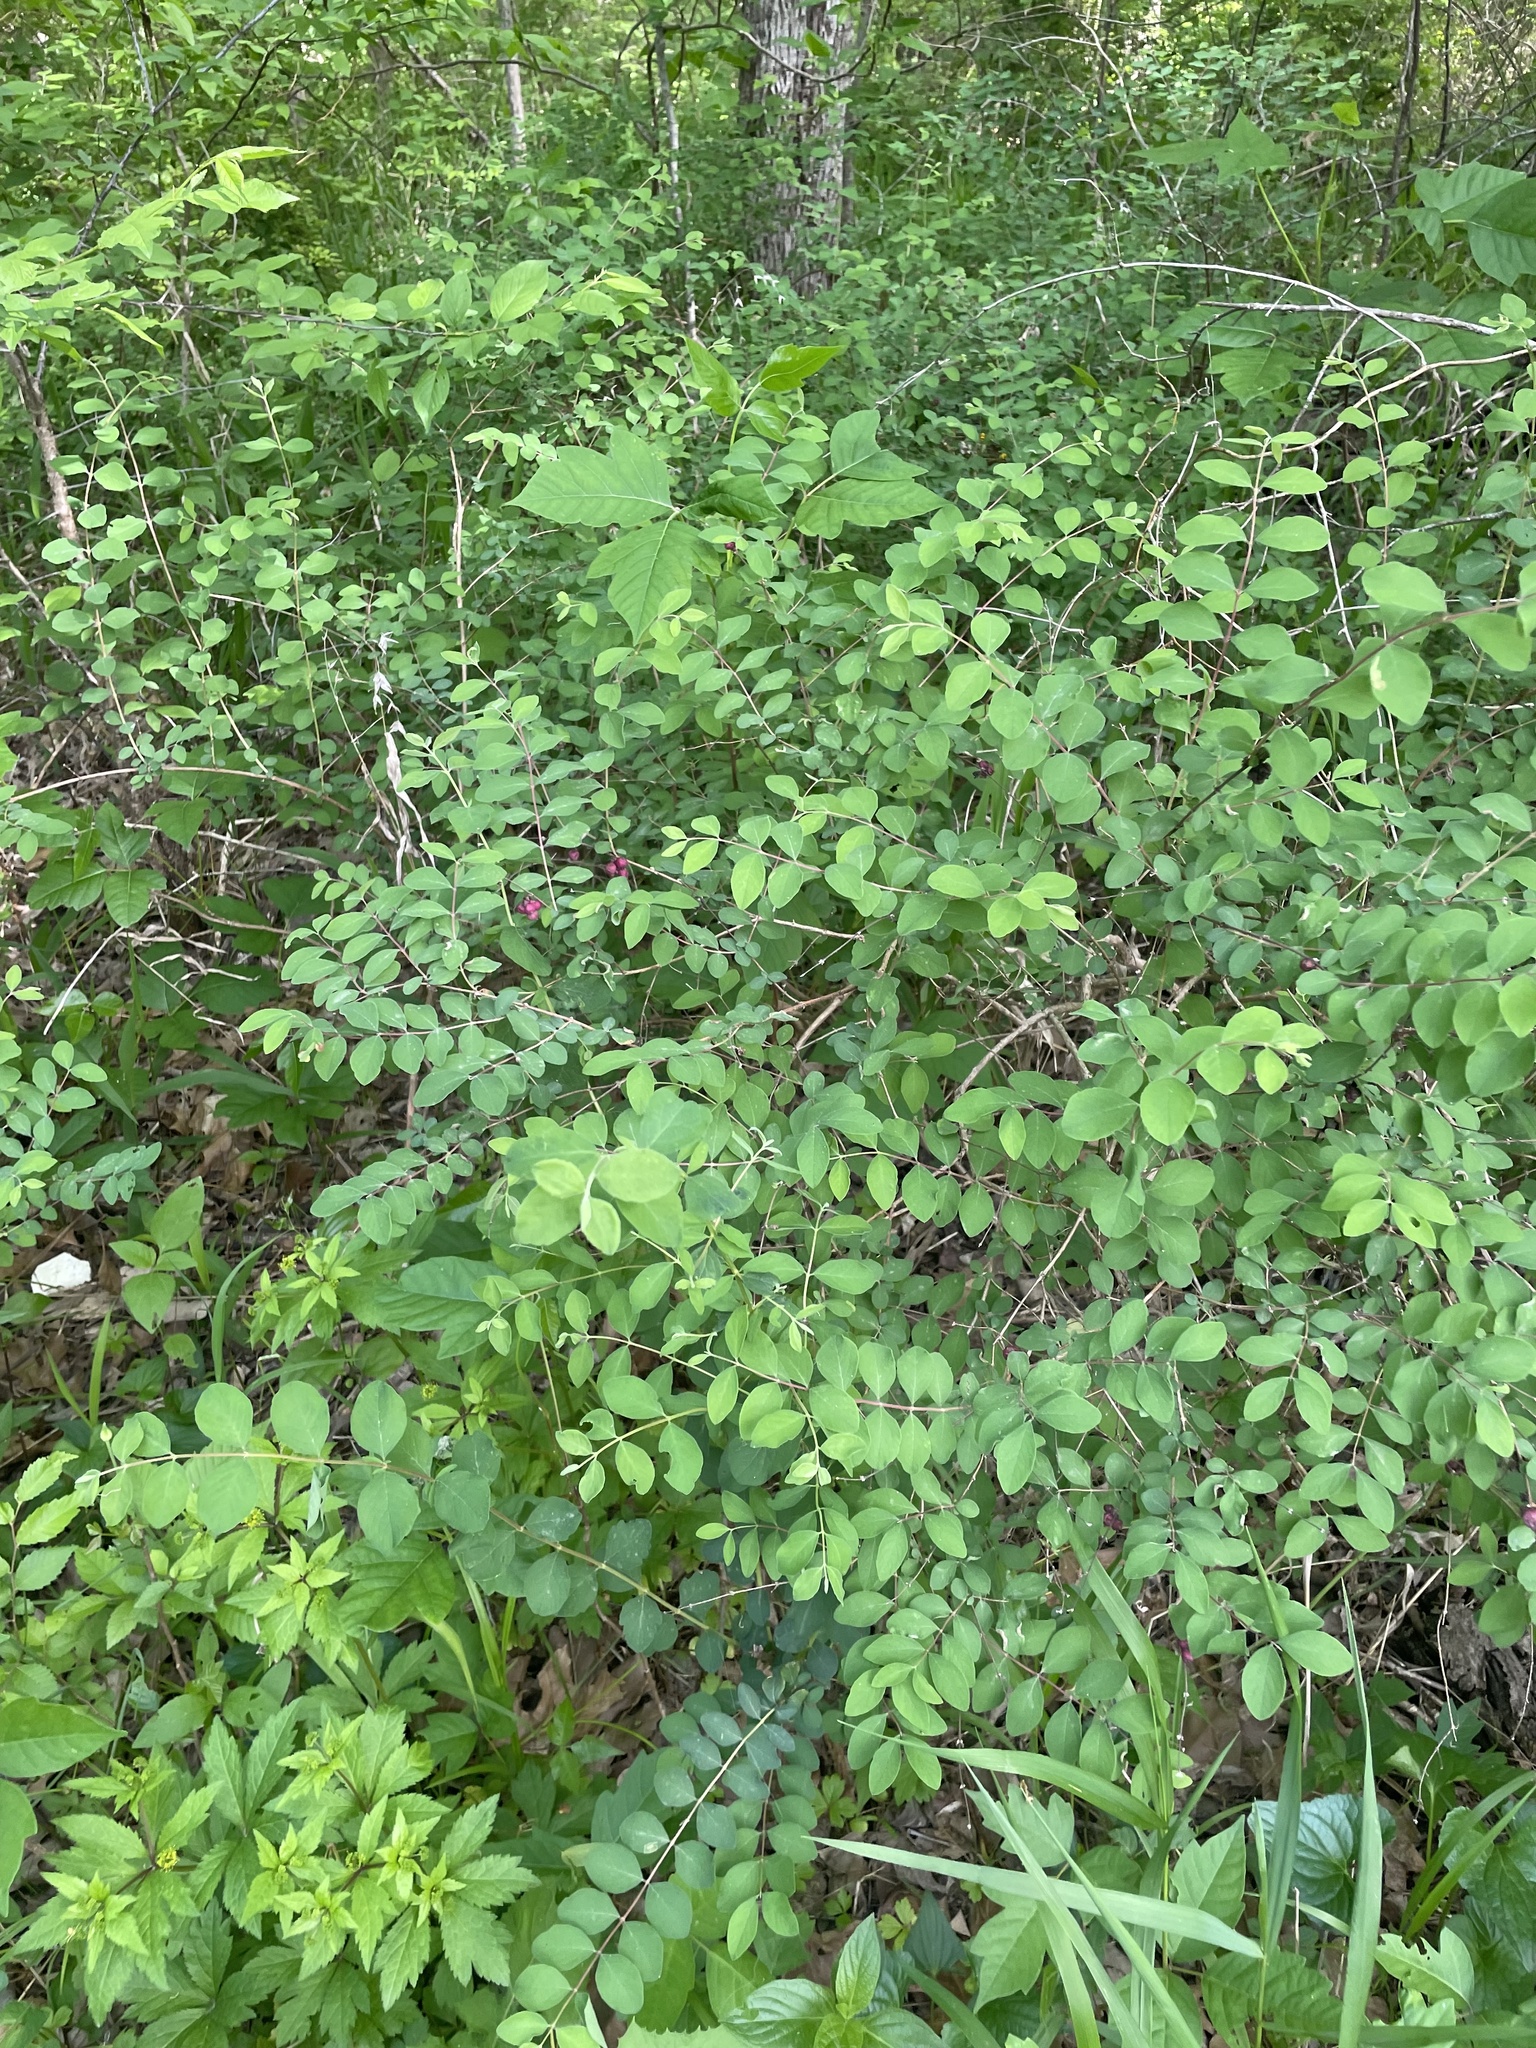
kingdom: Plantae
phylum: Tracheophyta
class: Magnoliopsida
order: Dipsacales
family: Caprifoliaceae
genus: Symphoricarpos
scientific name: Symphoricarpos orbiculatus
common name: Coralberry
